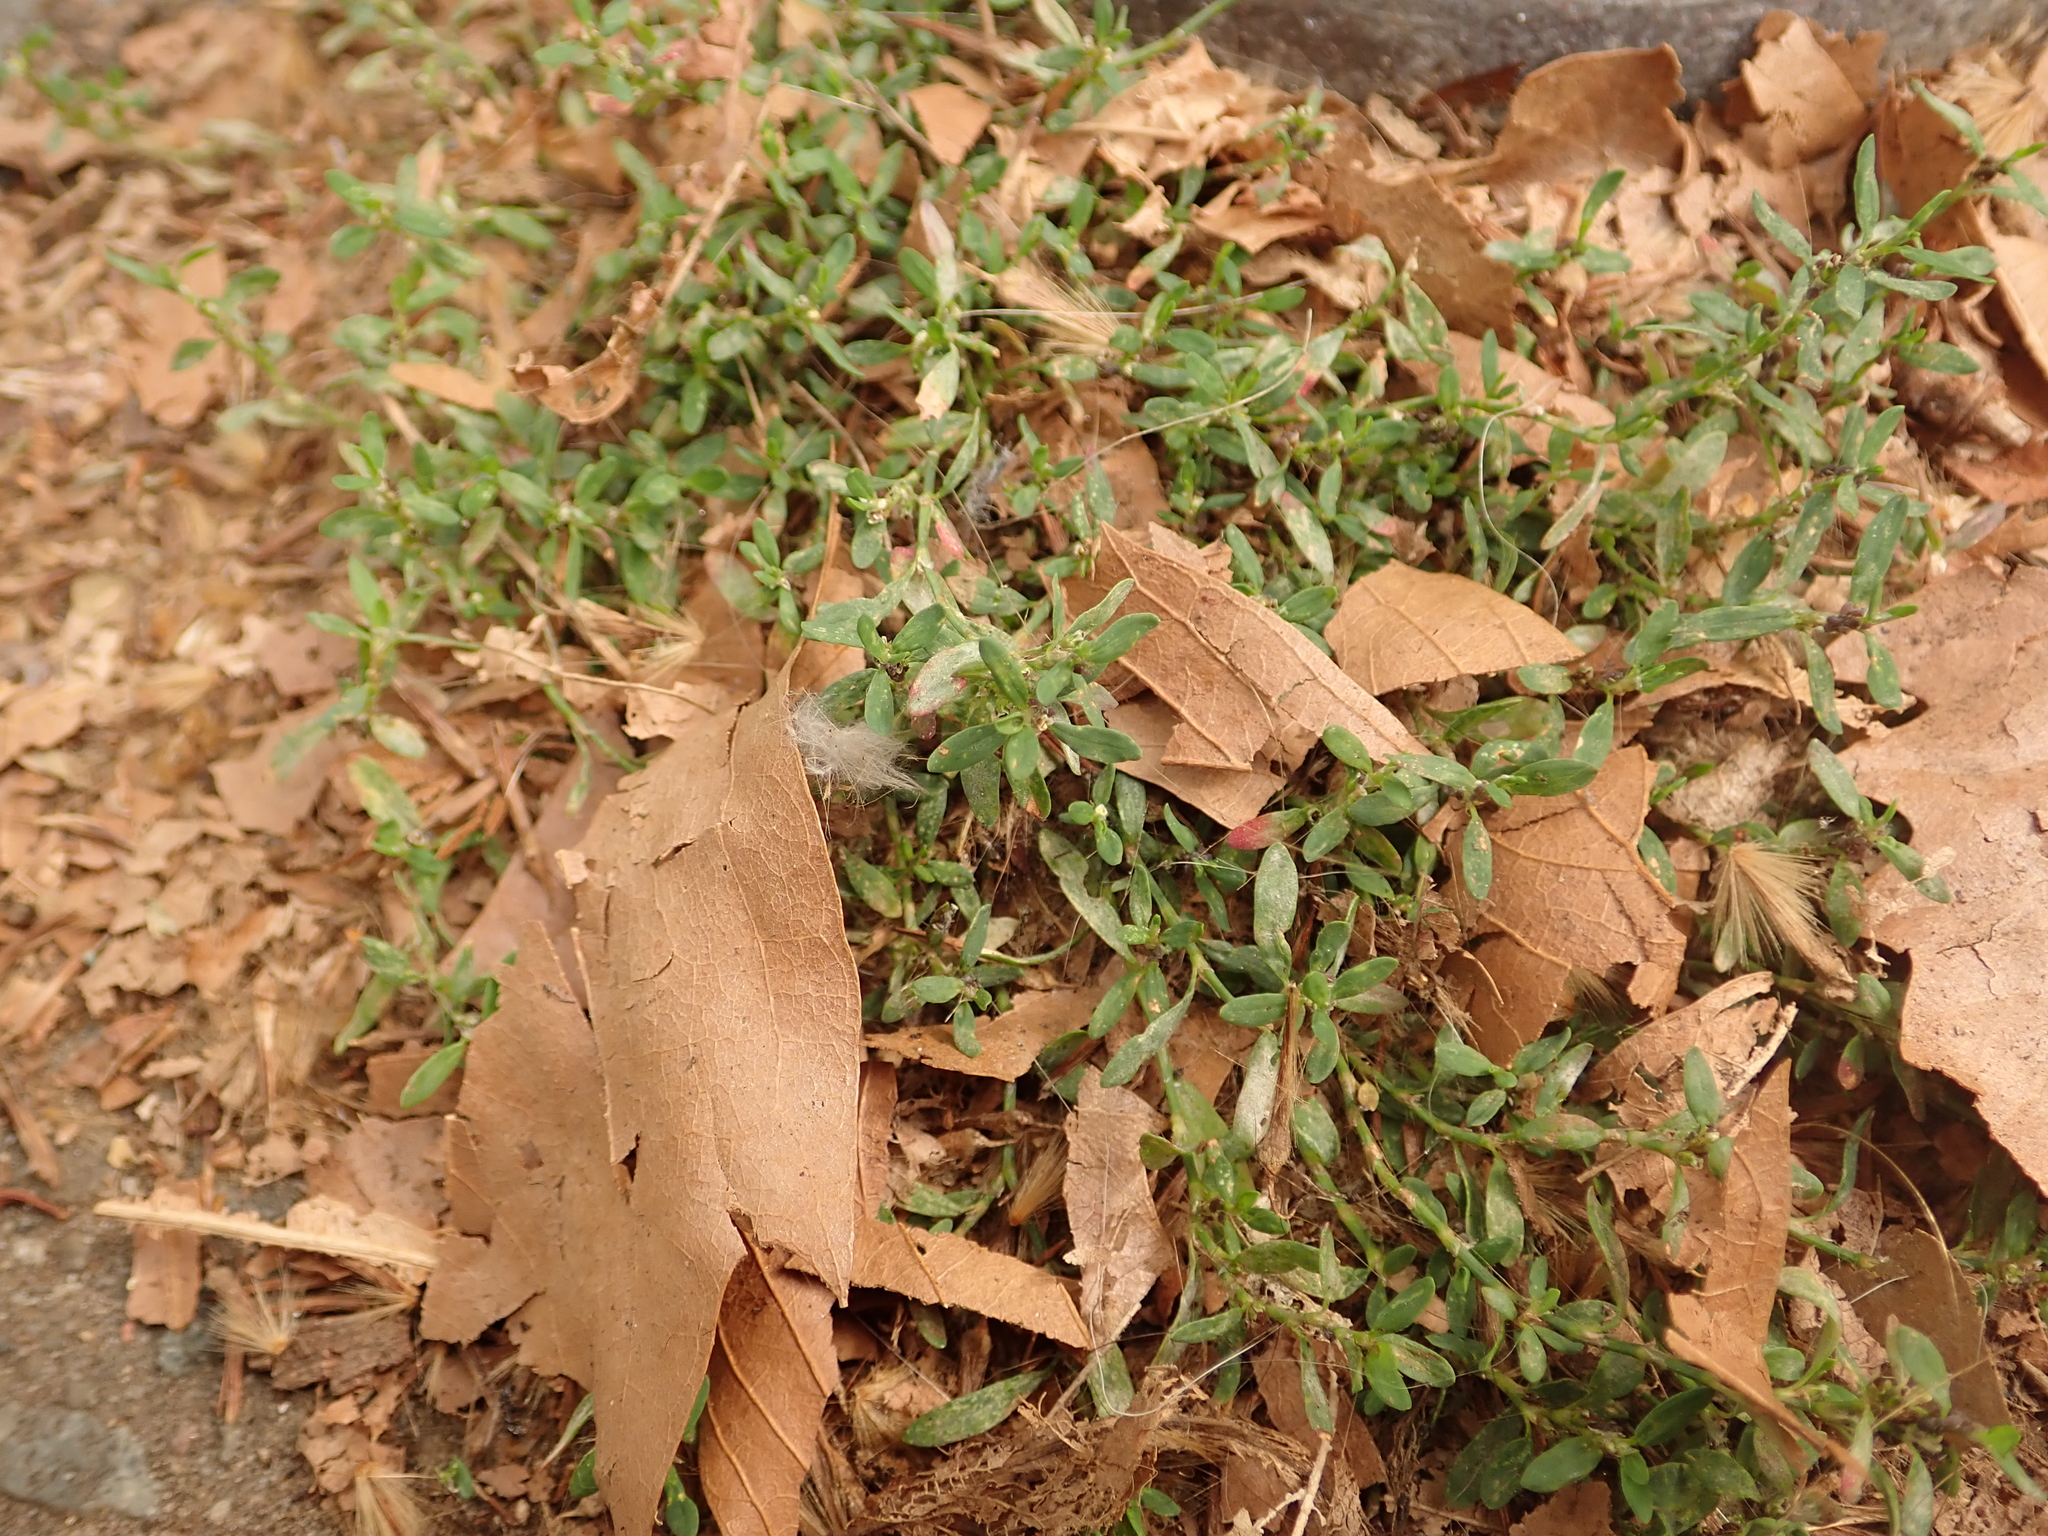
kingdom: Plantae
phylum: Tracheophyta
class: Magnoliopsida
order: Caryophyllales
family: Polygonaceae
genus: Polygonum
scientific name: Polygonum aviculare
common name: Prostrate knotweed
